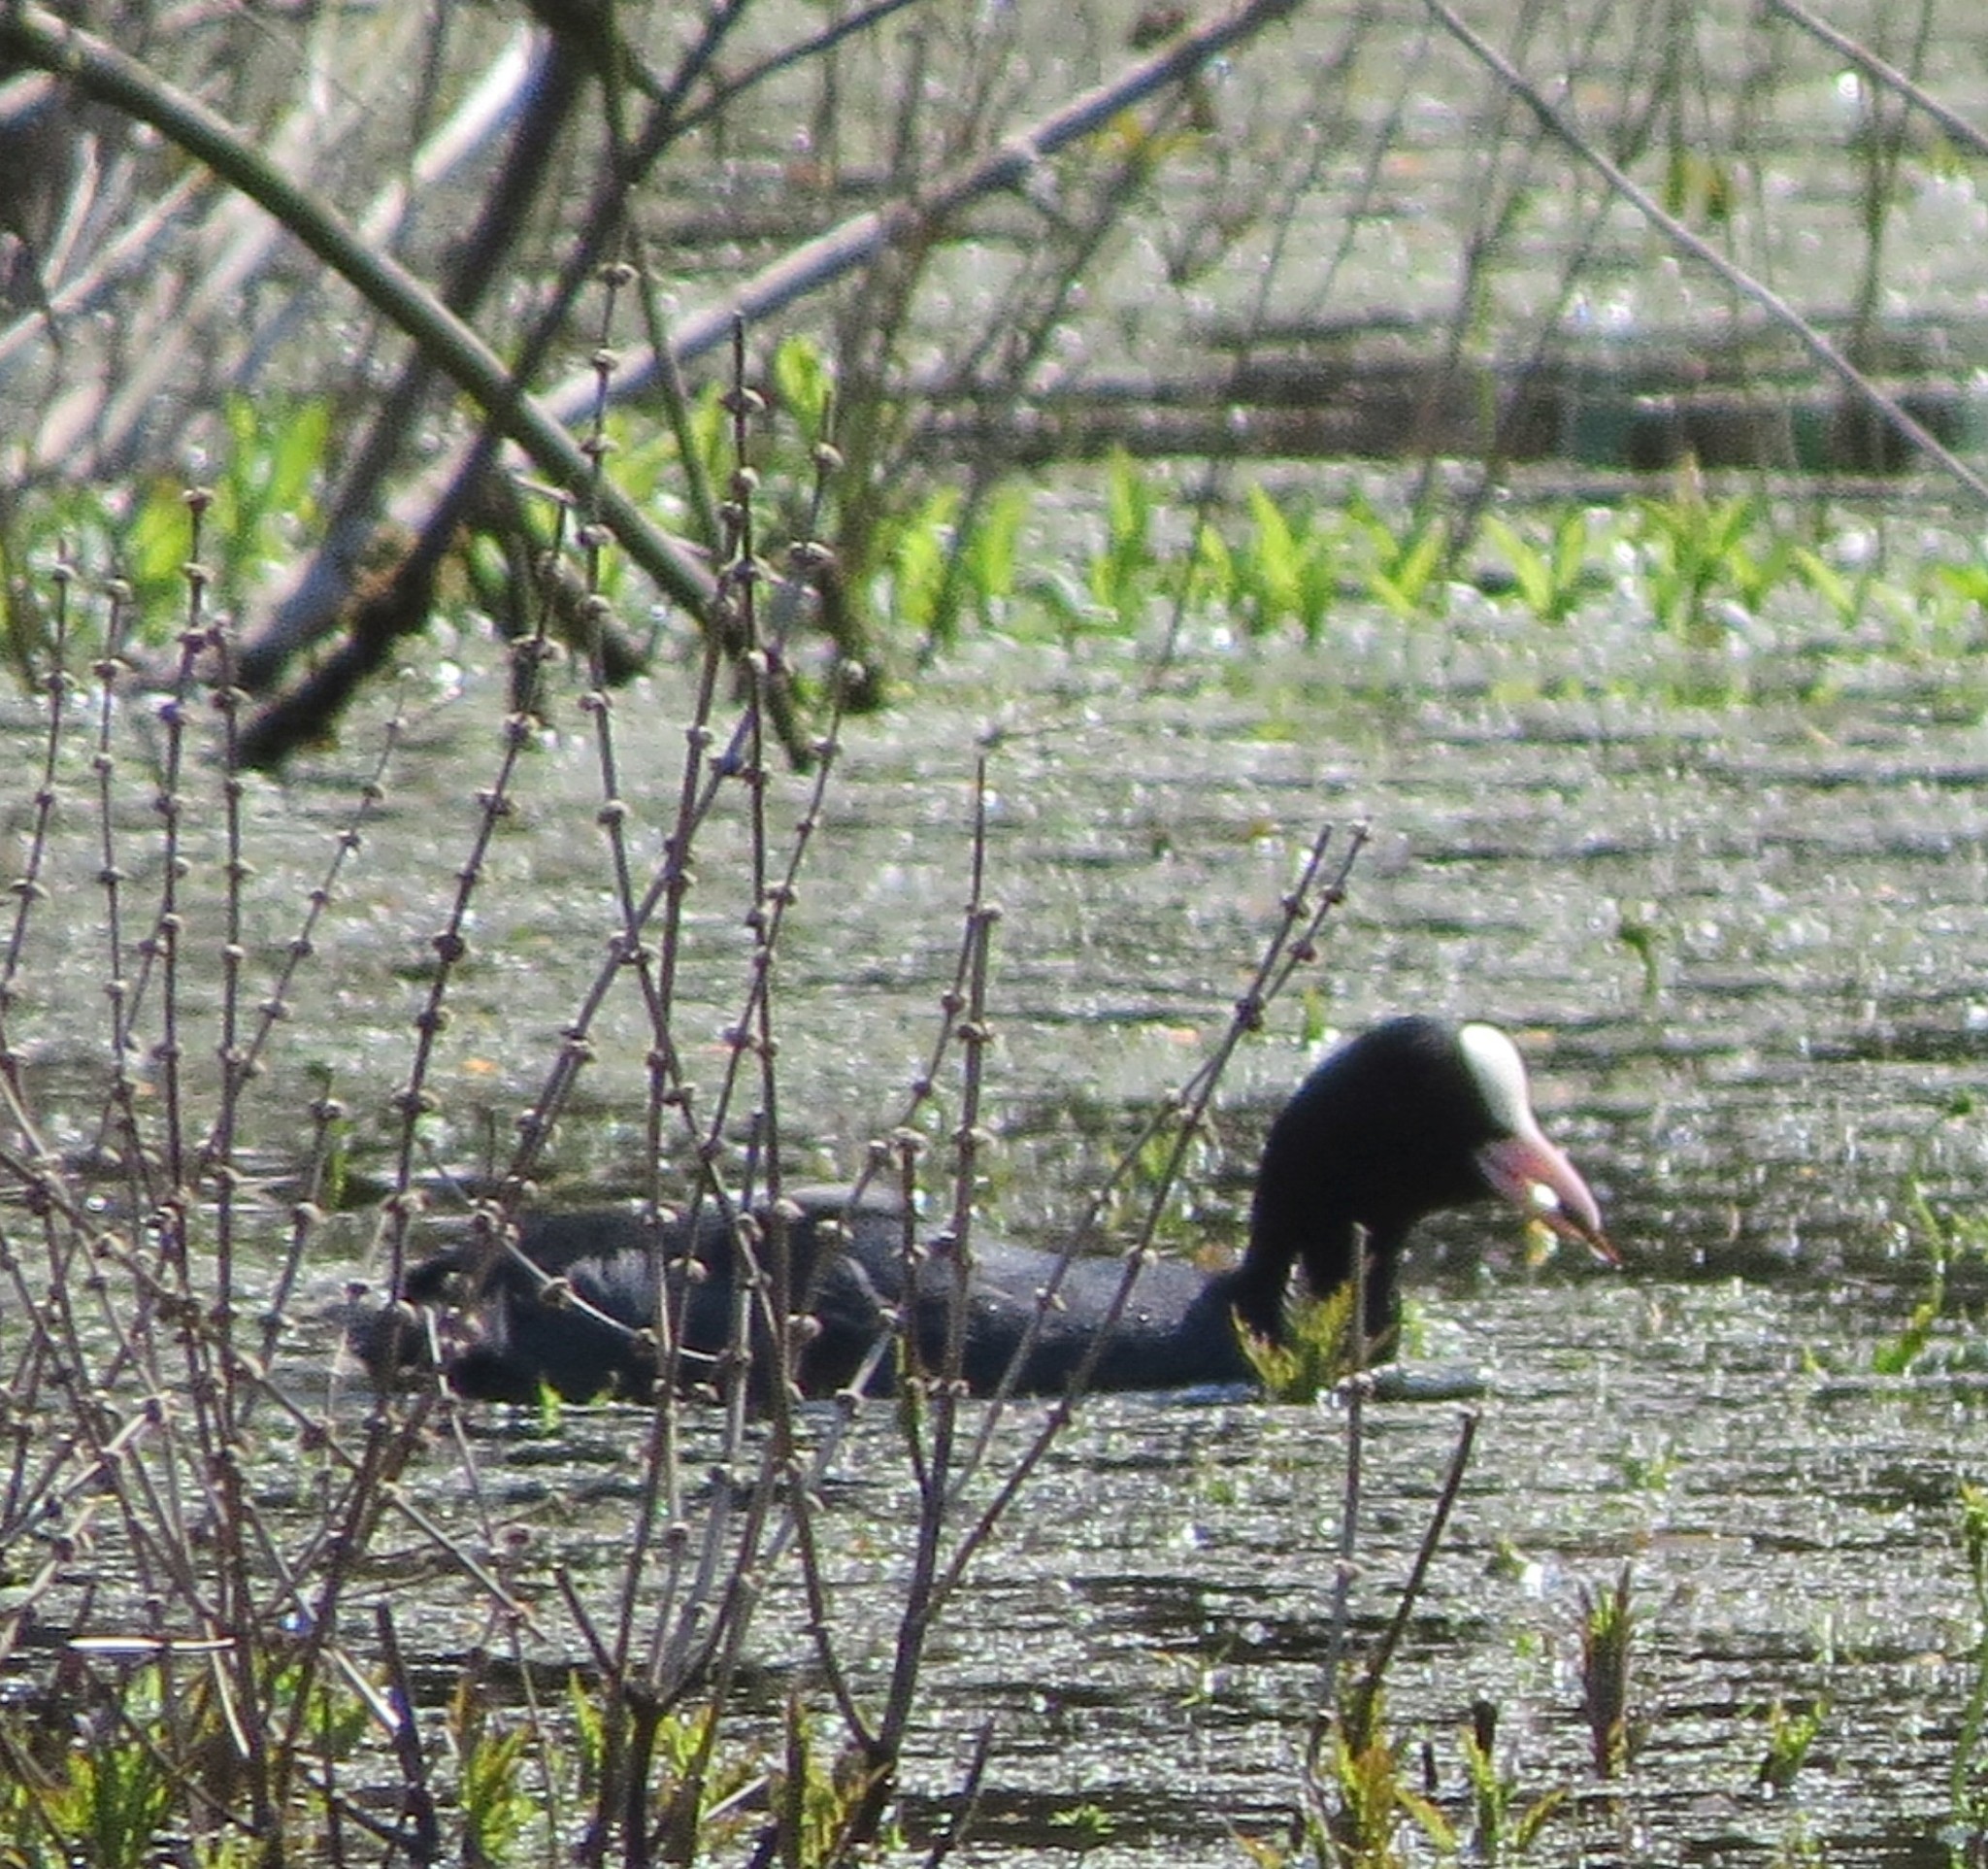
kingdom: Animalia
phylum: Chordata
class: Aves
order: Gruiformes
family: Rallidae
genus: Fulica
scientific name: Fulica atra
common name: Eurasian coot
